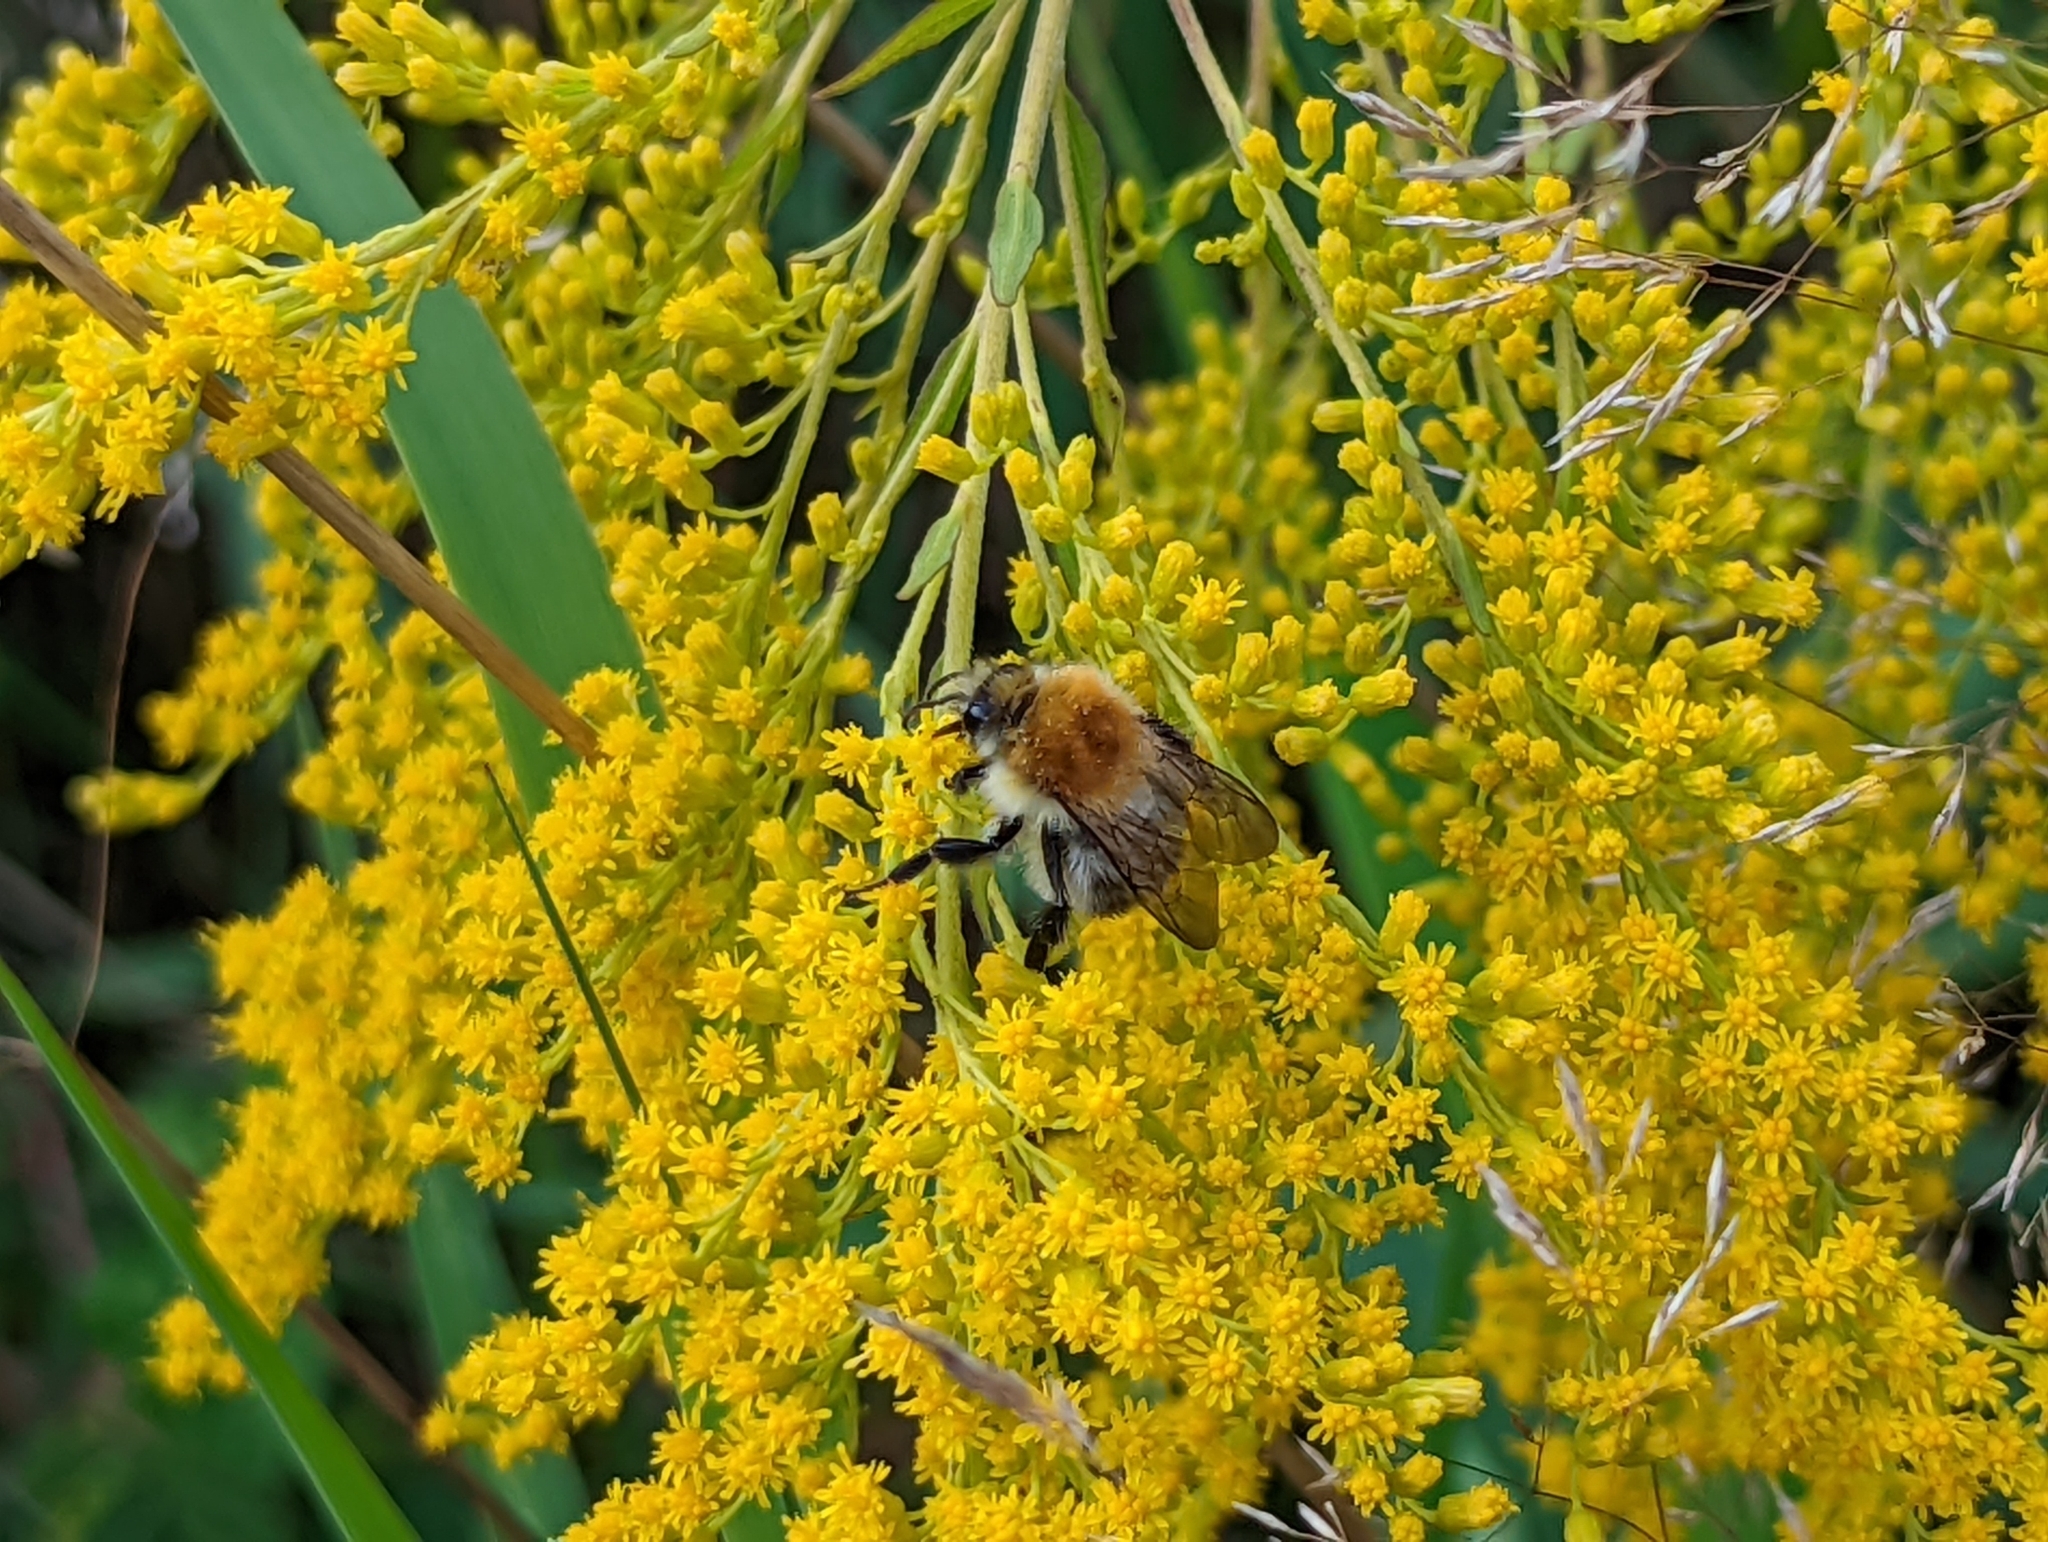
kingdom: Animalia
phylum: Arthropoda
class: Insecta
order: Hymenoptera
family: Apidae
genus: Bombus
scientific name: Bombus pascuorum
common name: Common carder bee
